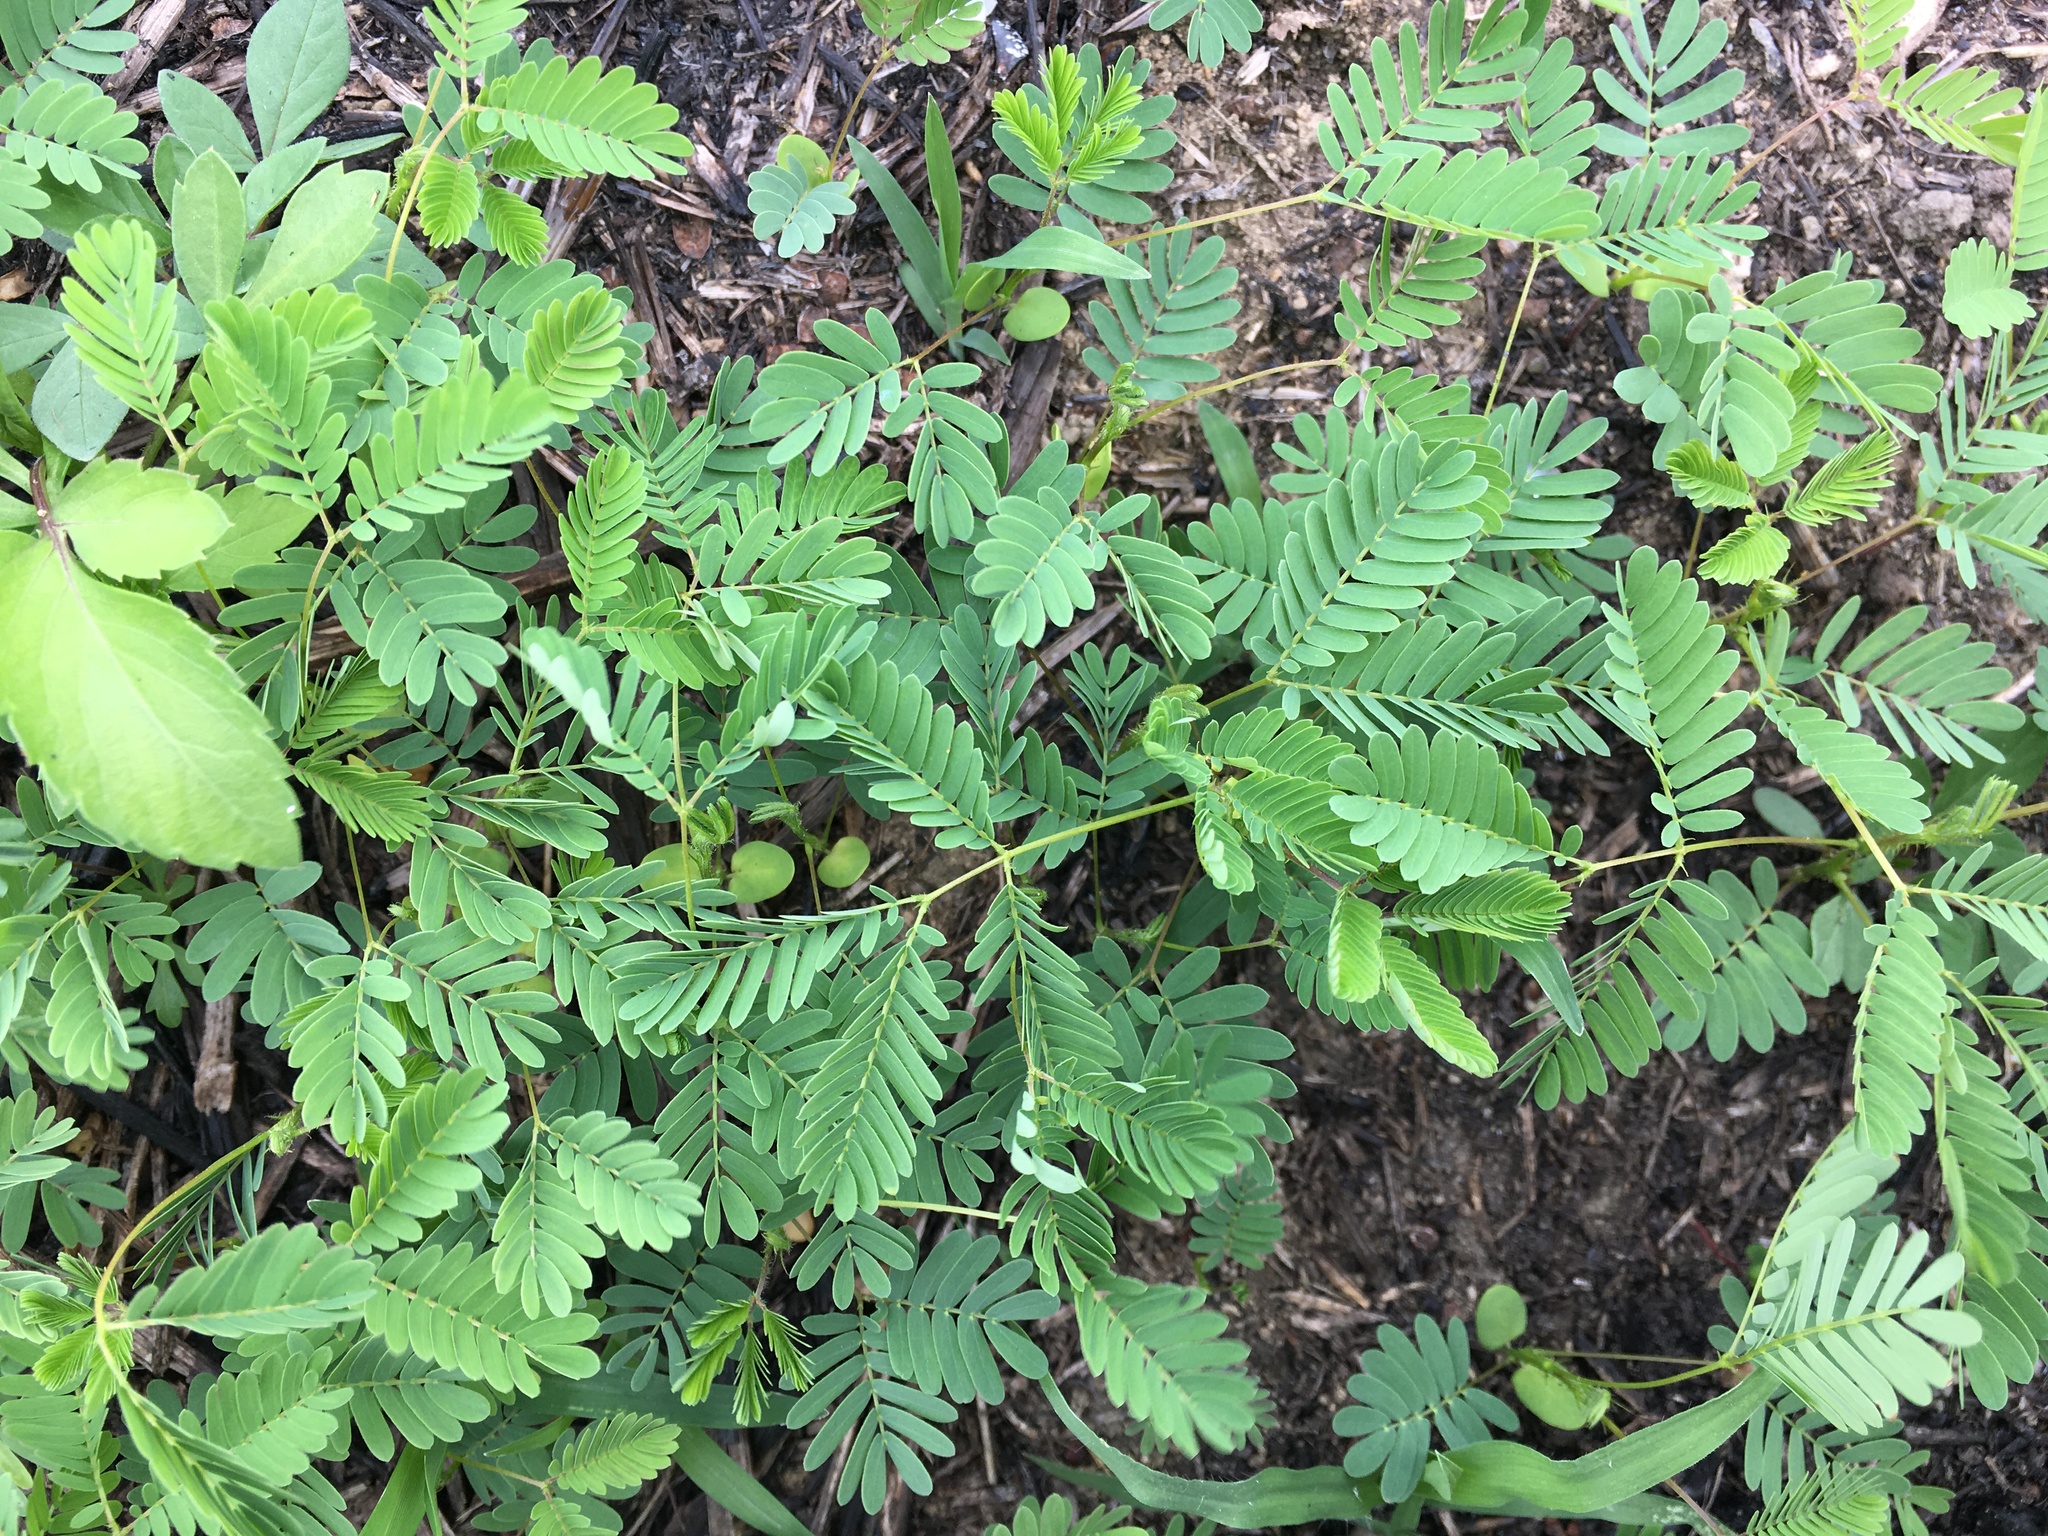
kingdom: Plantae
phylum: Tracheophyta
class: Magnoliopsida
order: Fabales
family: Fabaceae
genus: Mimosa
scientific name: Mimosa diplotricha
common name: Giant sensitive-plant
